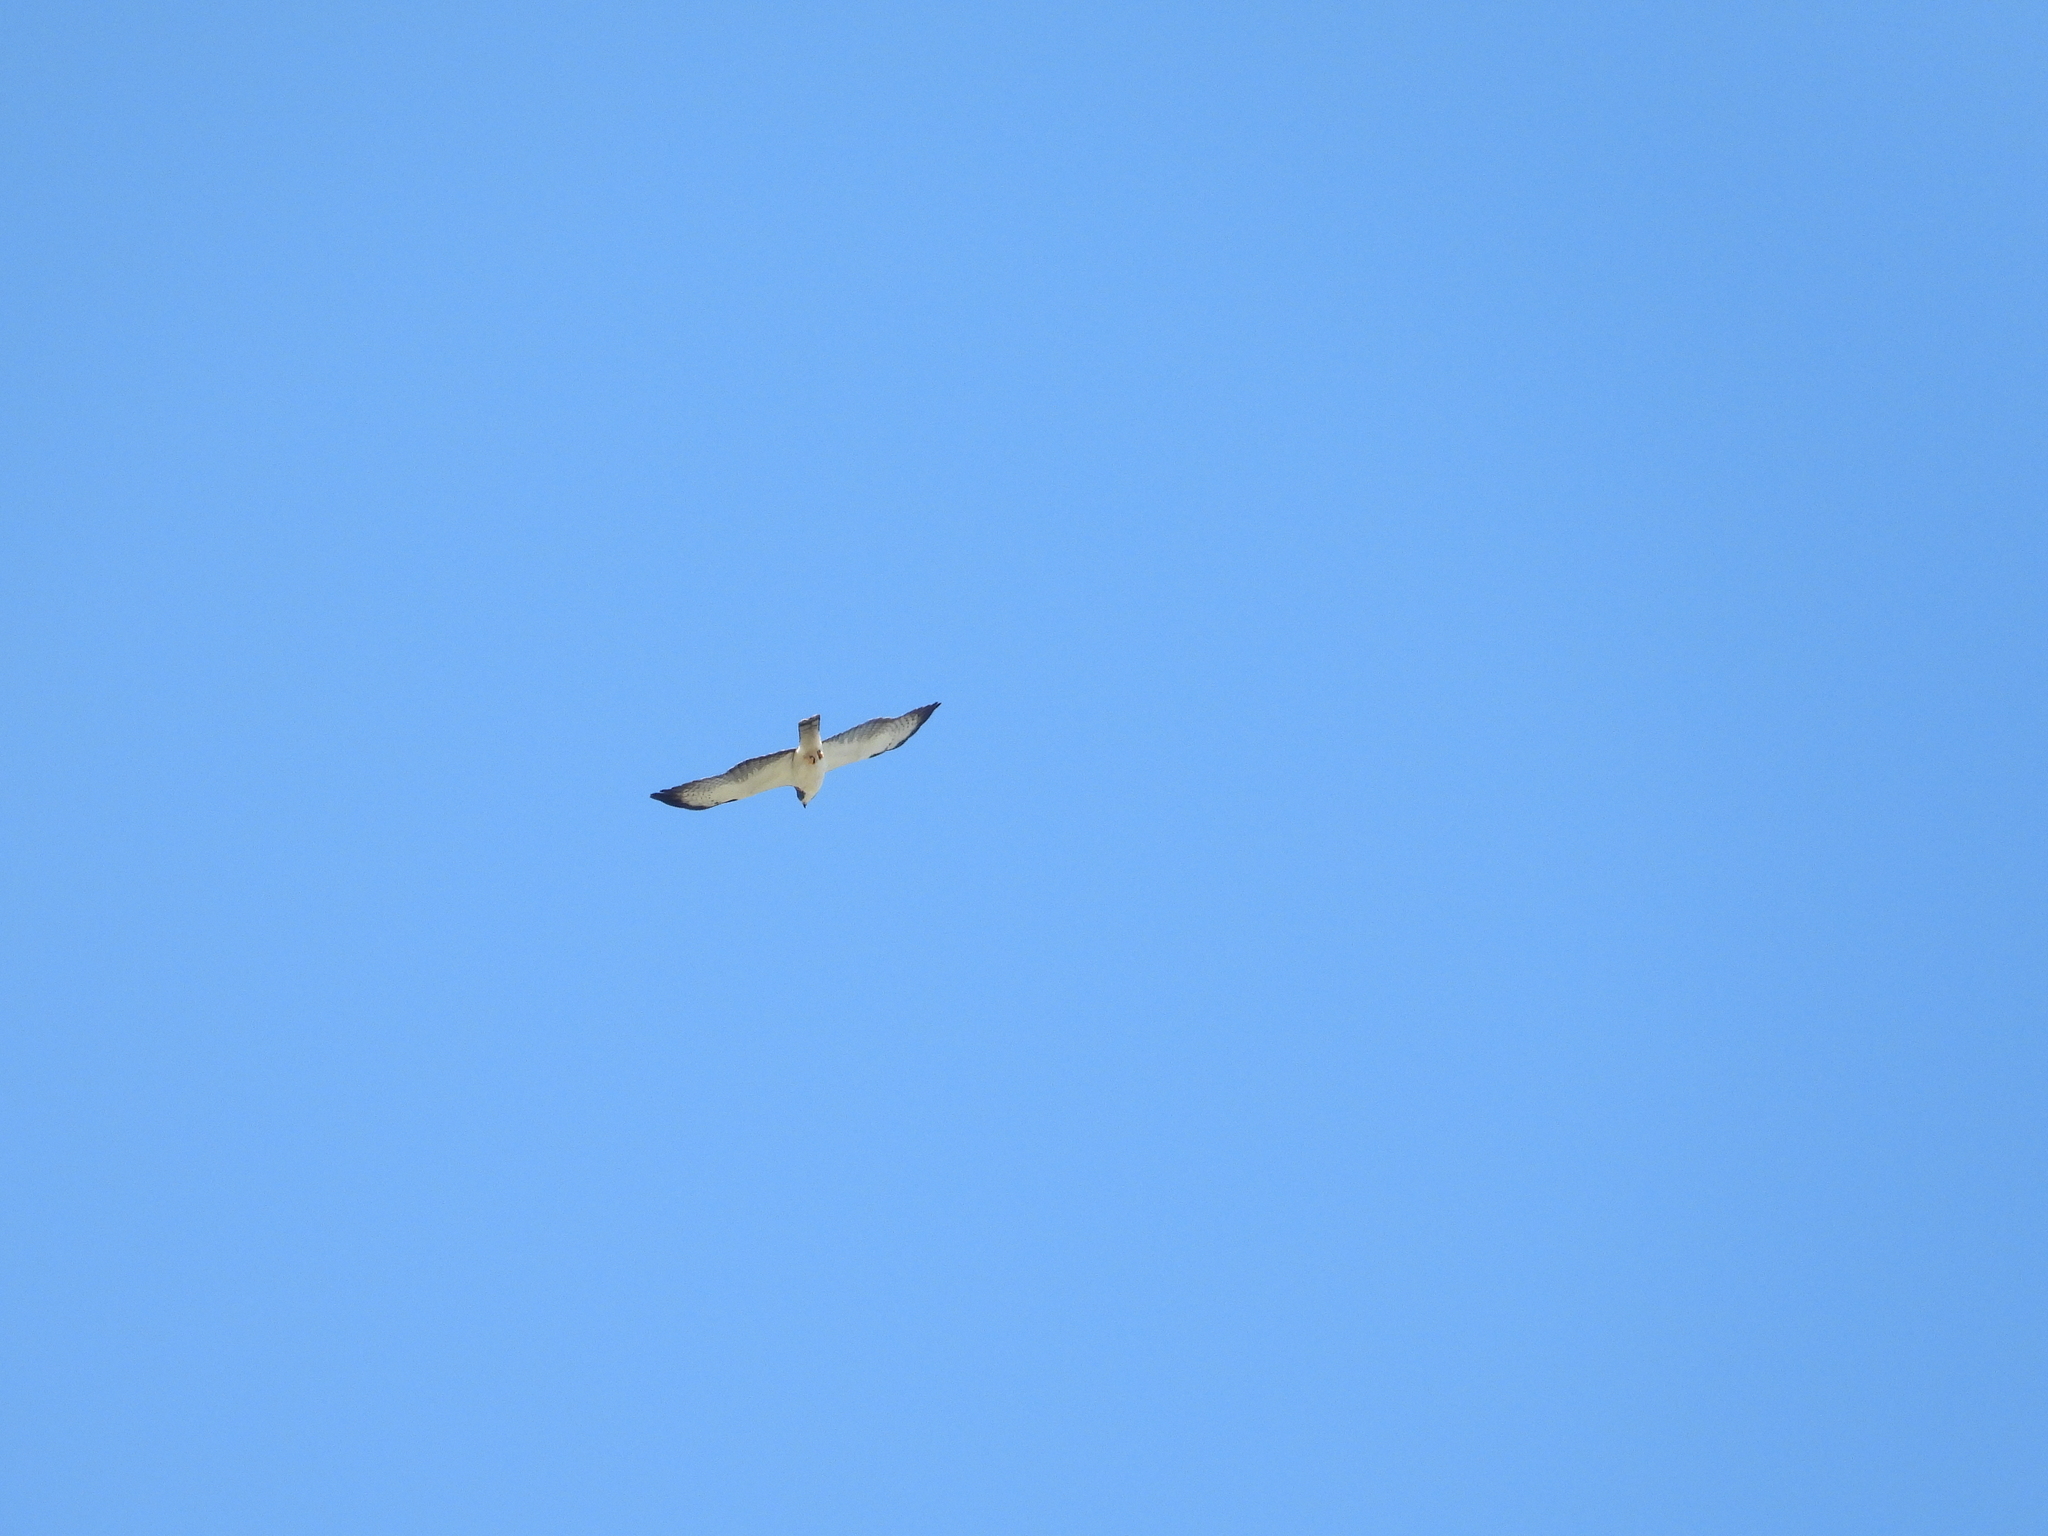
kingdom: Animalia
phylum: Chordata
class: Aves
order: Accipitriformes
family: Accipitridae
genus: Buteo
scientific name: Buteo brachyurus
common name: Short-tailed hawk
